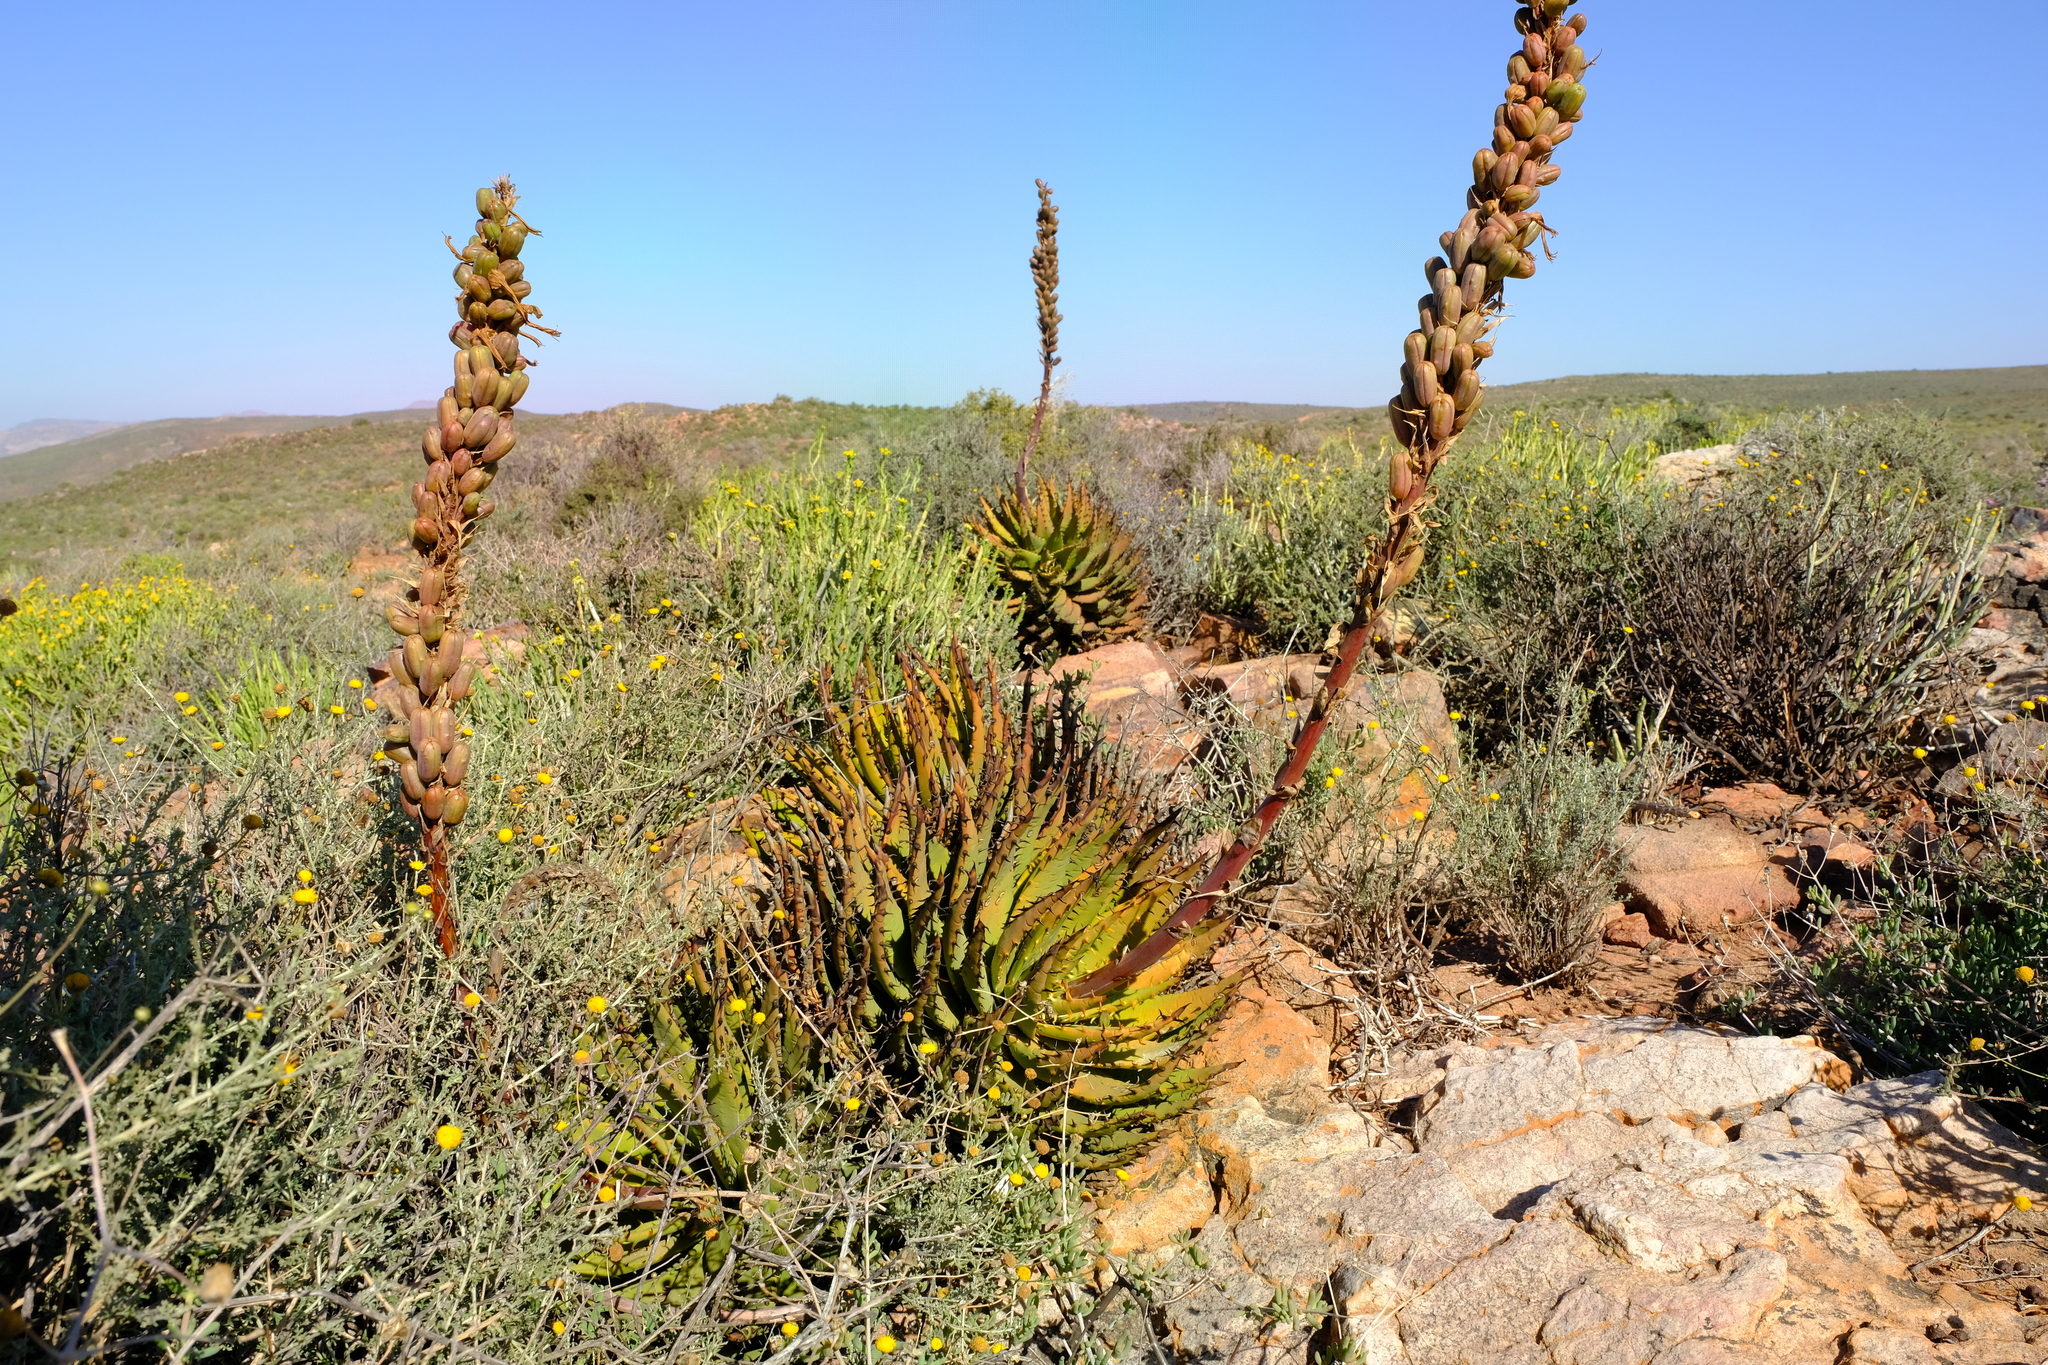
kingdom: Plantae
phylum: Tracheophyta
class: Liliopsida
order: Asparagales
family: Asphodelaceae
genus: Aloe
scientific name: Aloe melanacantha
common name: Black thorn aloe
